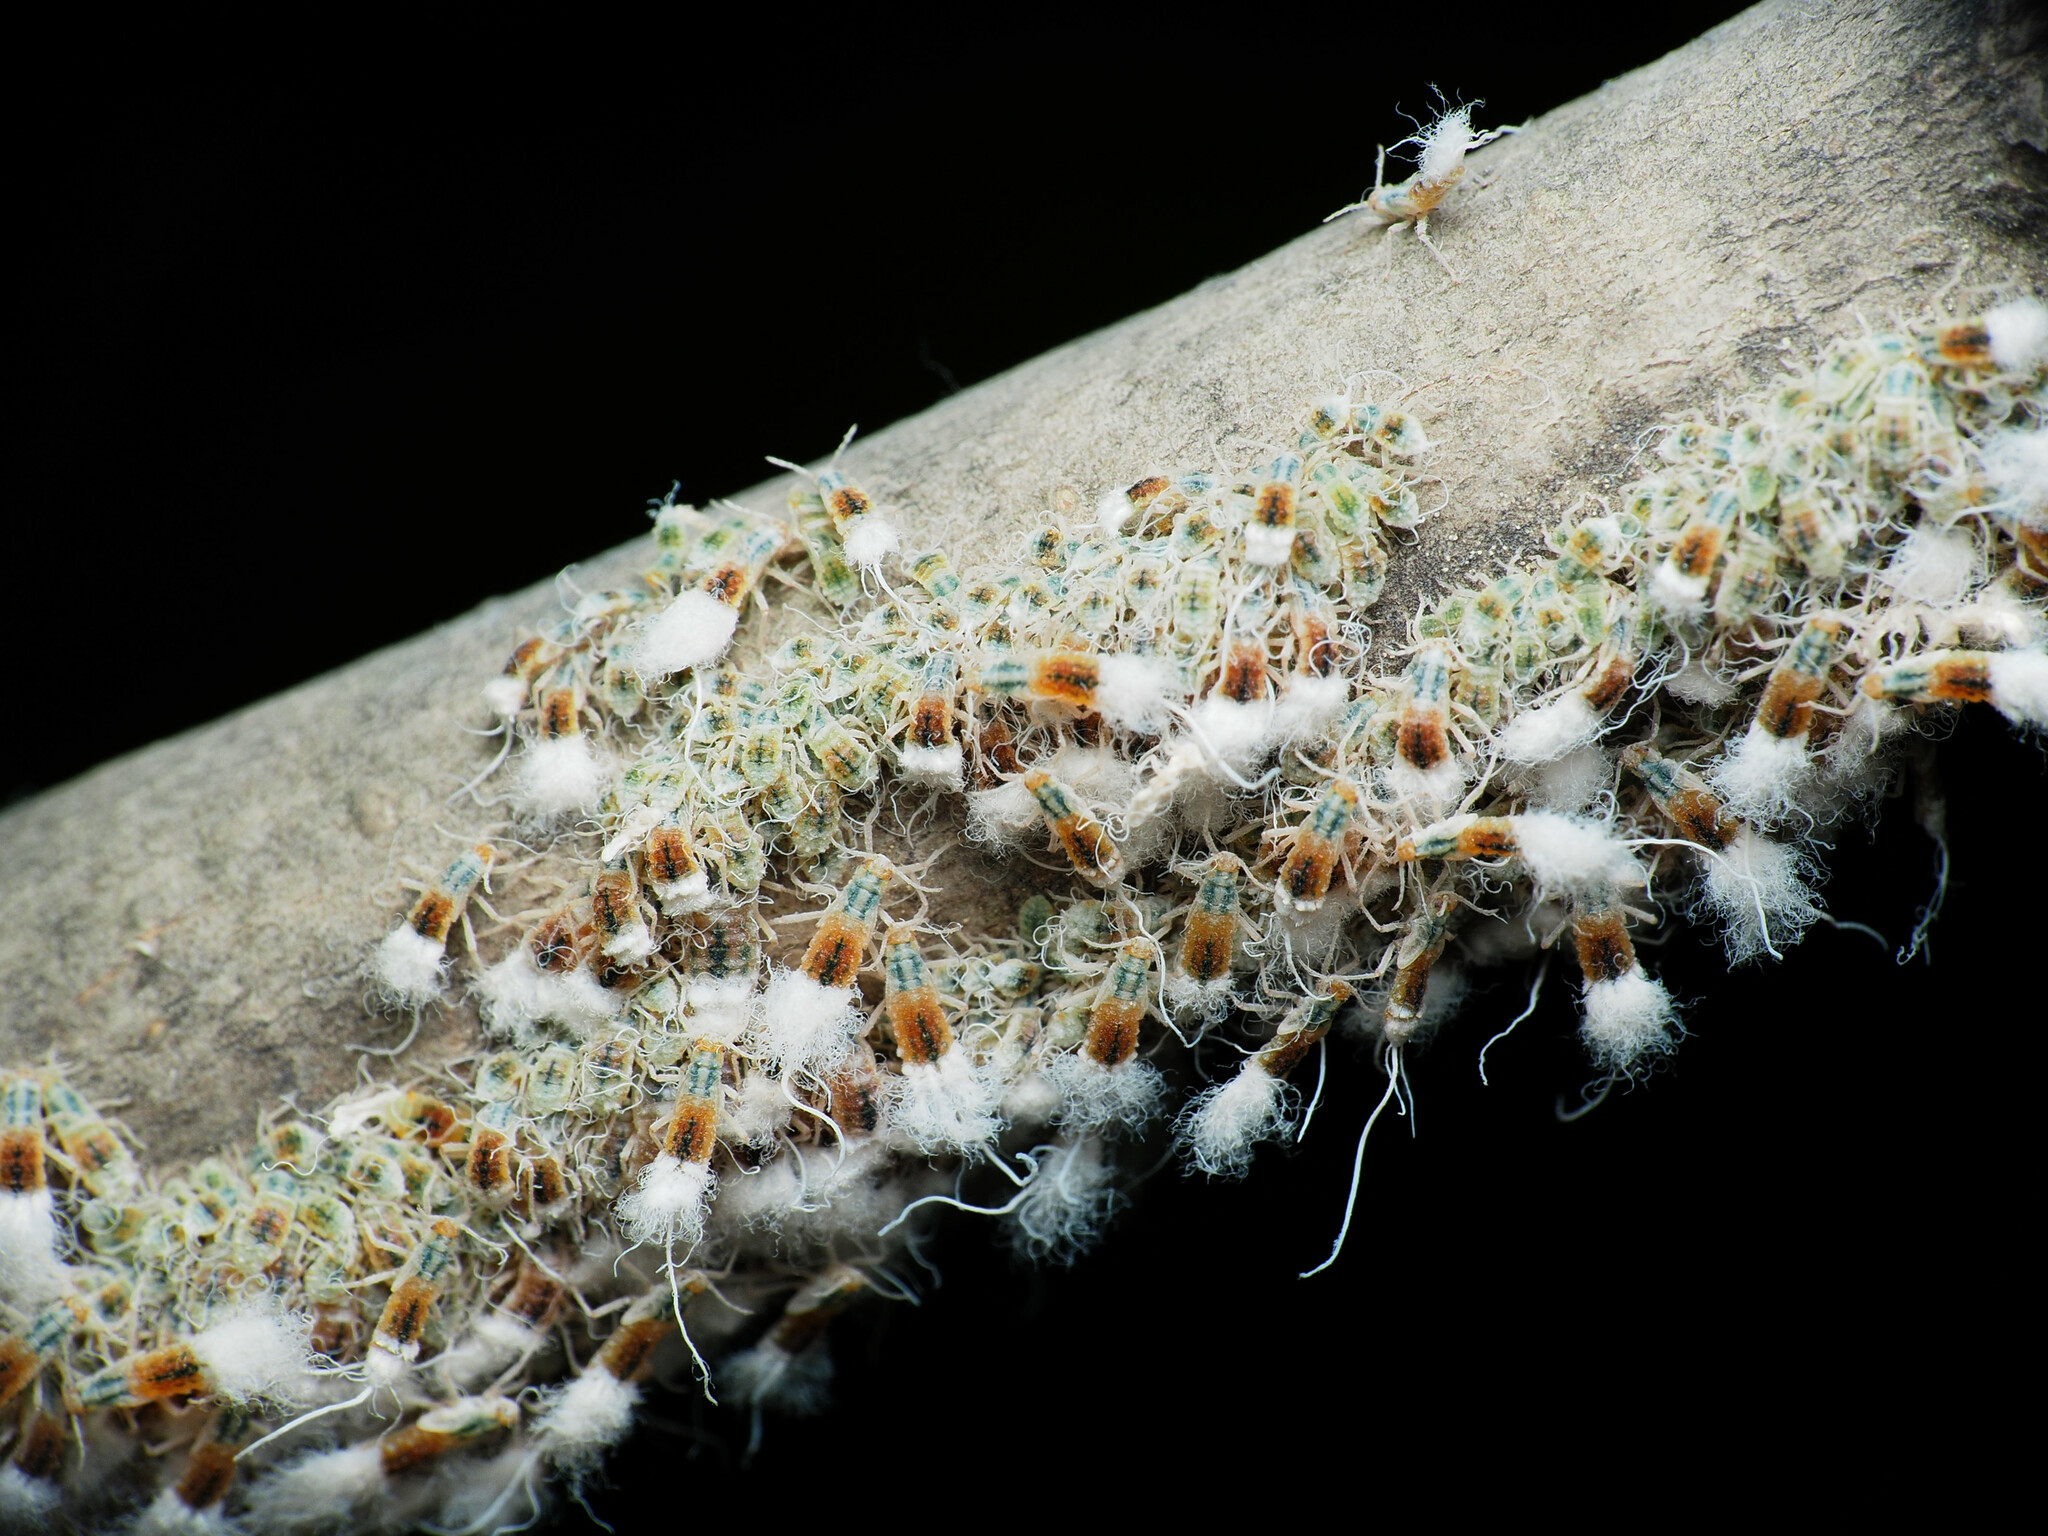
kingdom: Animalia
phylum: Arthropoda
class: Insecta
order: Hemiptera
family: Aphididae
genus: Grylloprociphilus
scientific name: Grylloprociphilus imbricator
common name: Beech blight aphid
